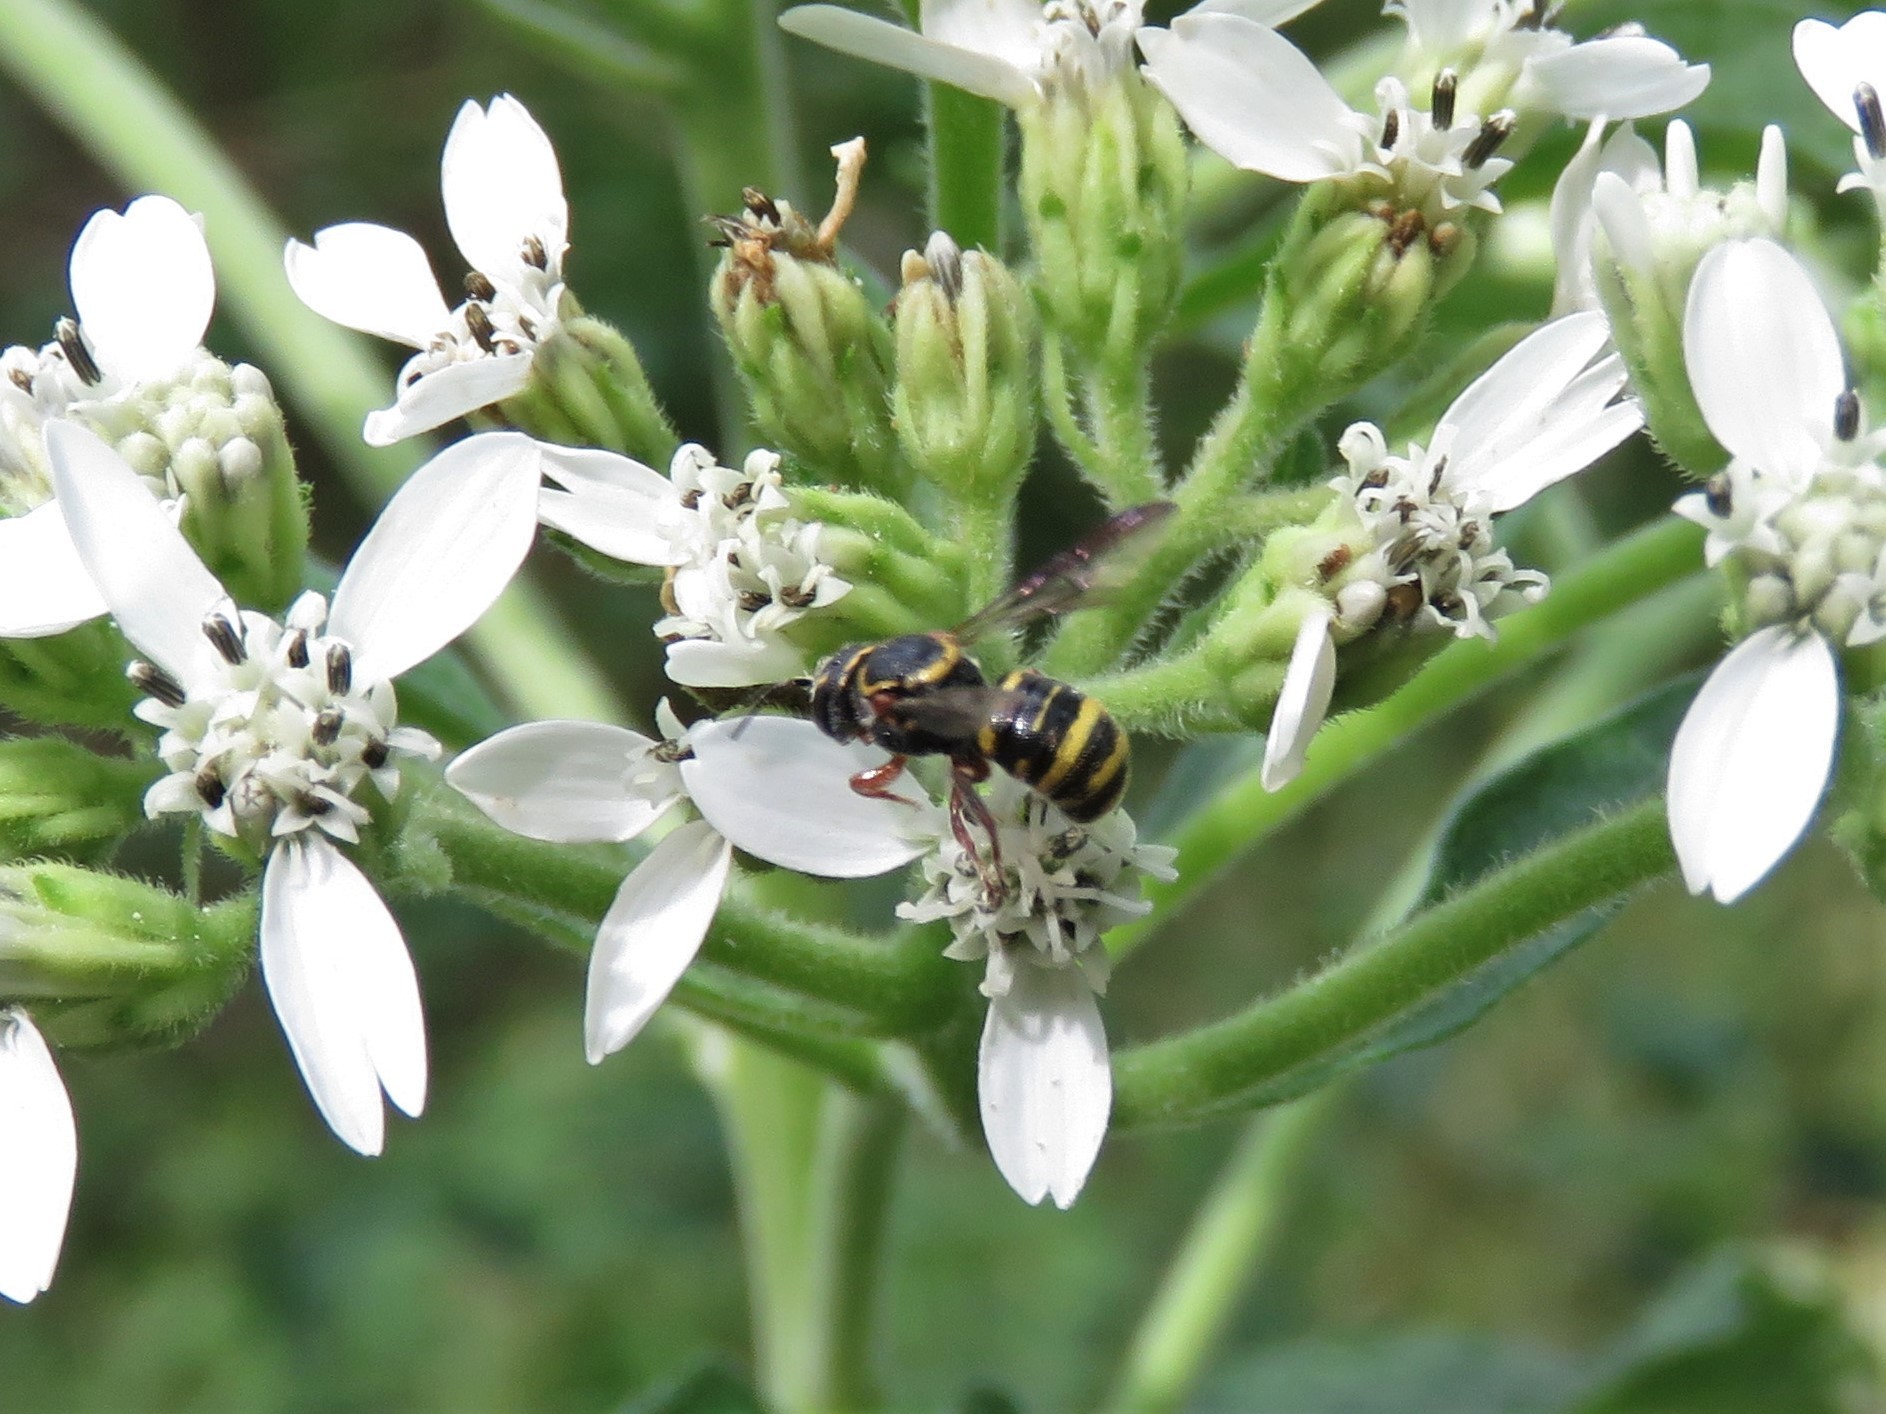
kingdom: Animalia
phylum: Arthropoda
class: Insecta
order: Hymenoptera
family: Megachilidae
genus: Stelis
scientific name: Stelis costalis
